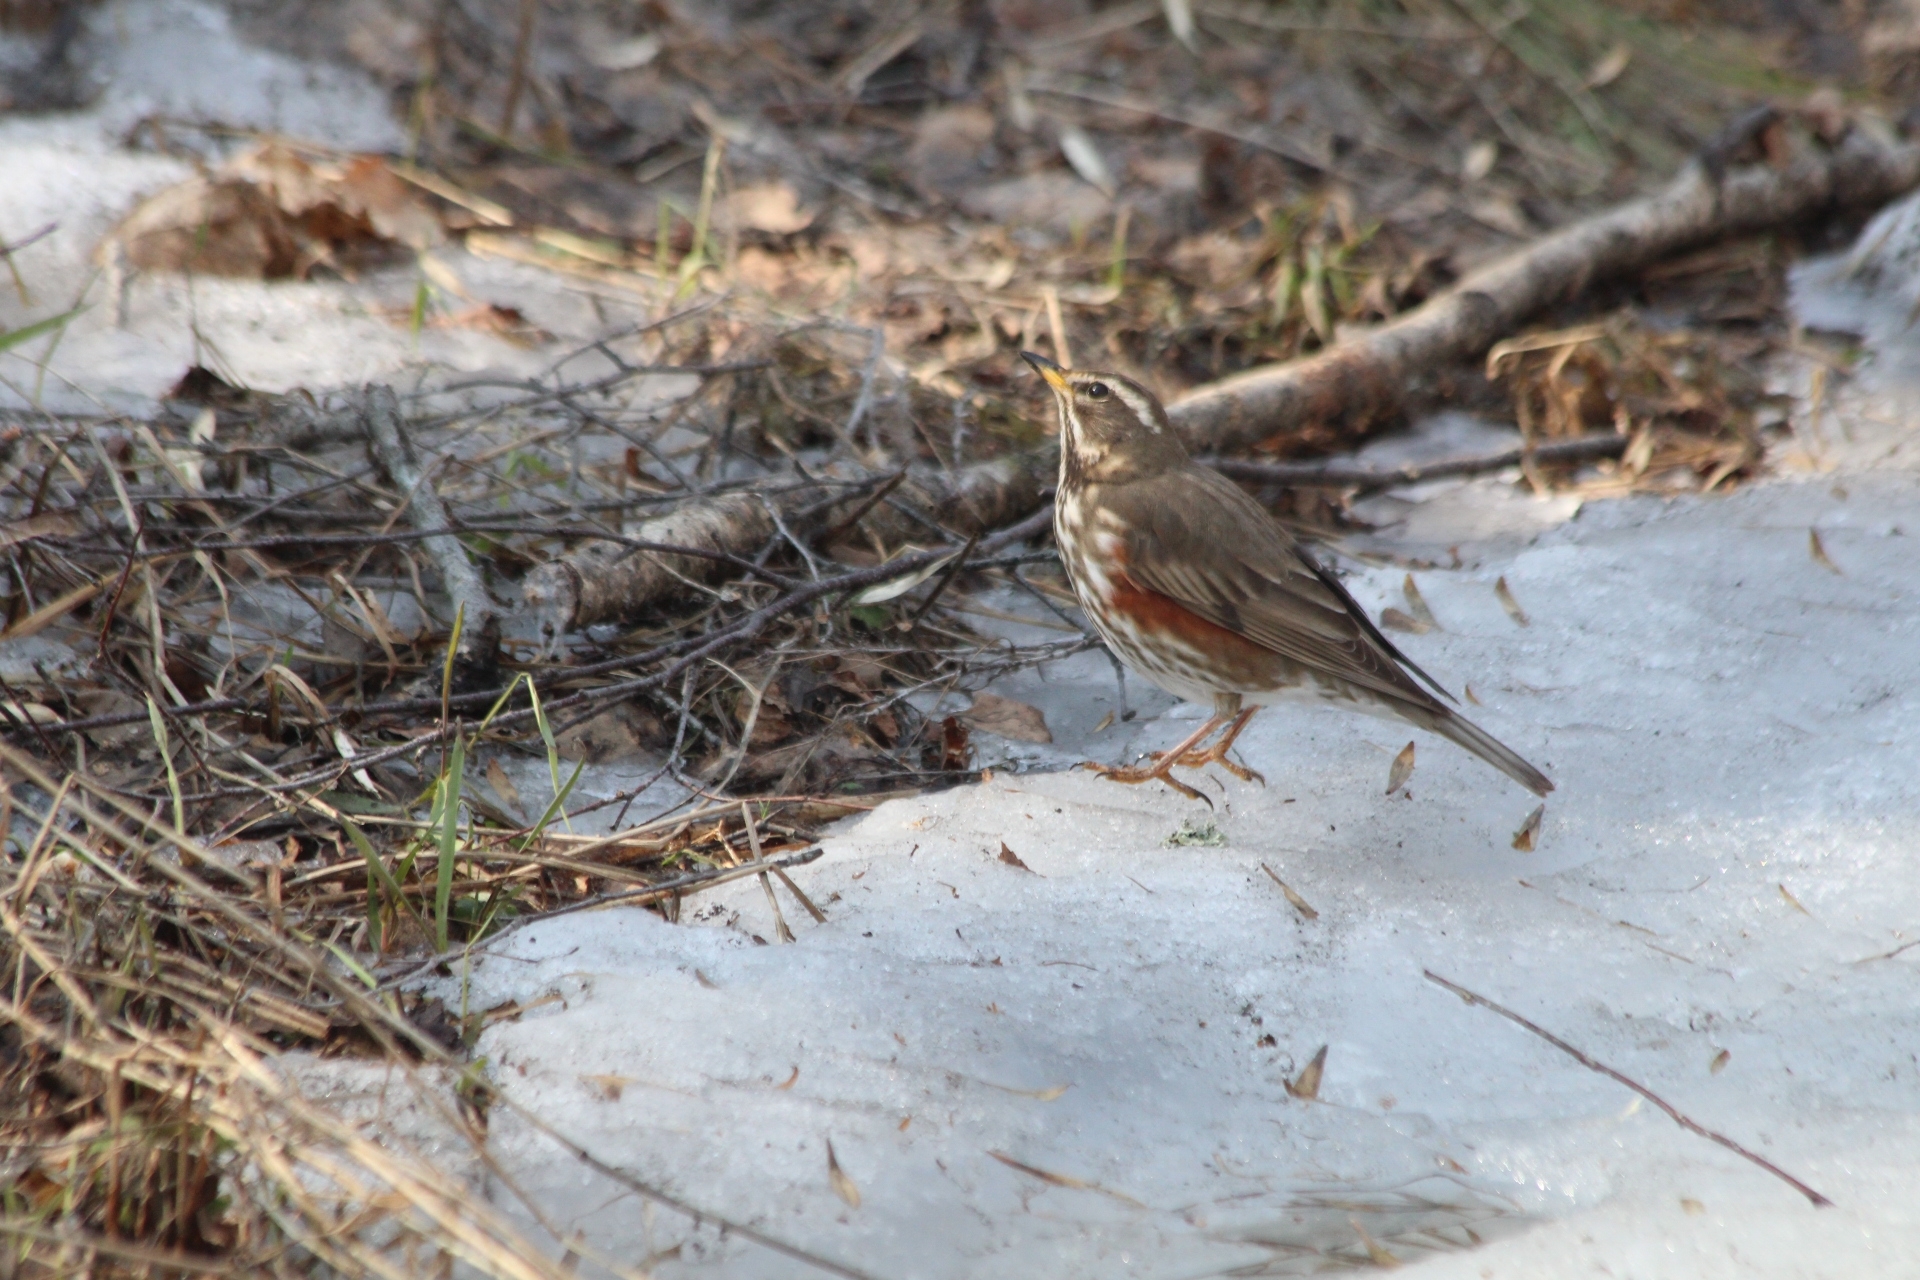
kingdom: Animalia
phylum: Chordata
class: Aves
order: Passeriformes
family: Turdidae
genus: Turdus
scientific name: Turdus iliacus
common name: Redwing
